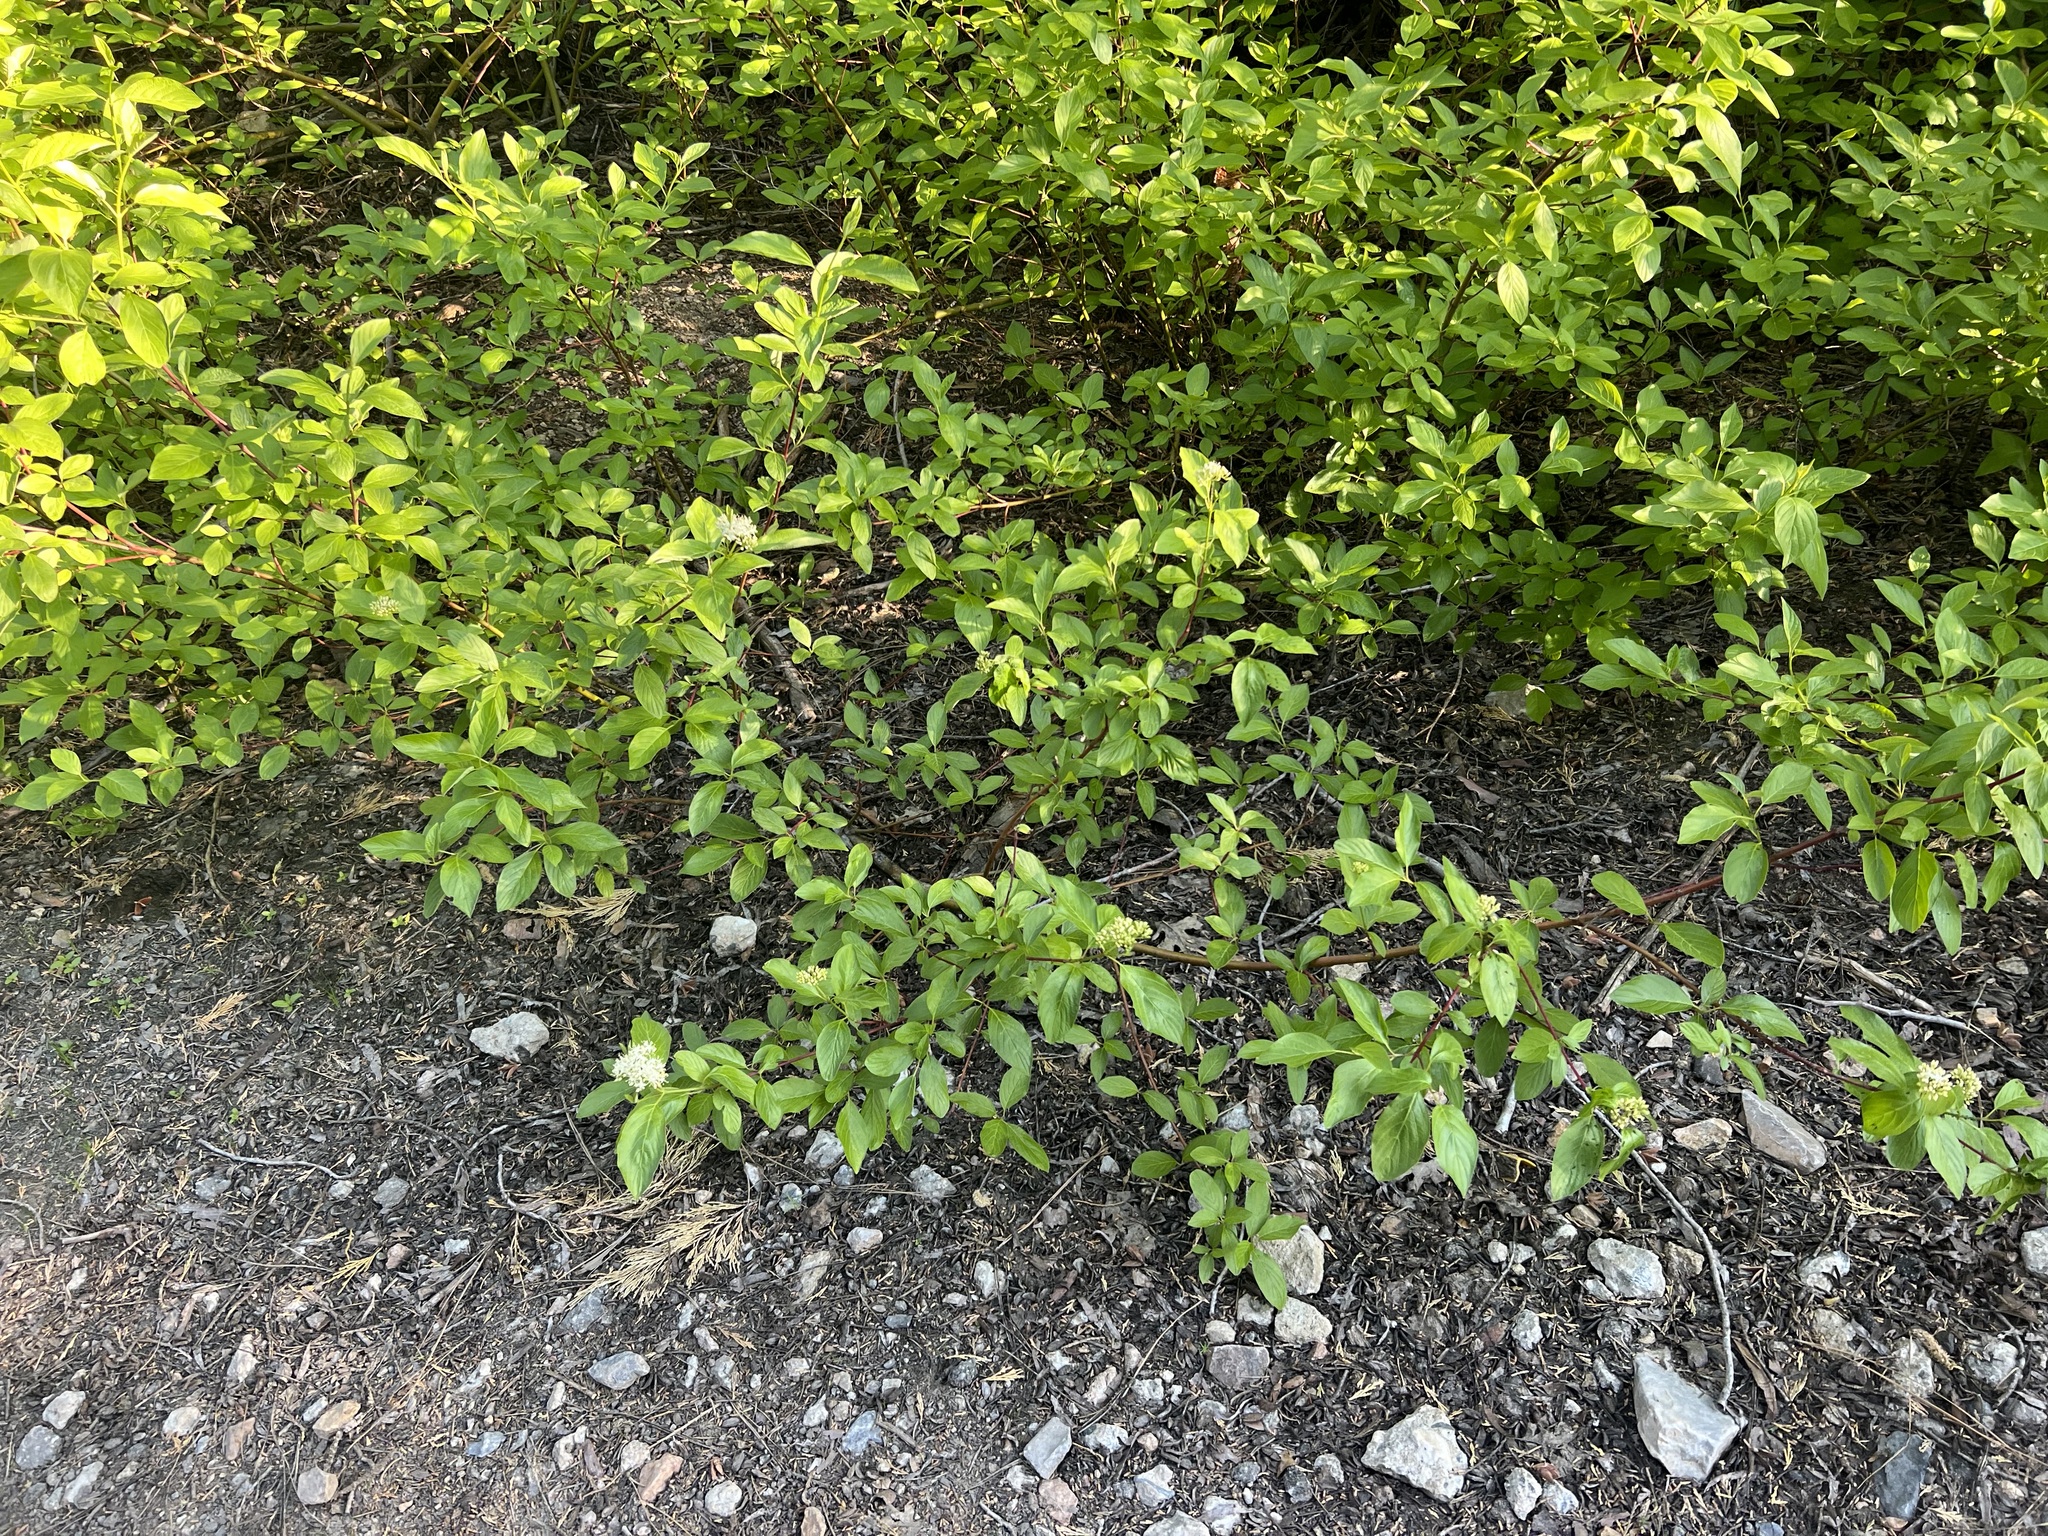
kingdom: Plantae
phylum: Tracheophyta
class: Magnoliopsida
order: Cornales
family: Cornaceae
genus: Cornus
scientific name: Cornus sericea
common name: Red-osier dogwood
